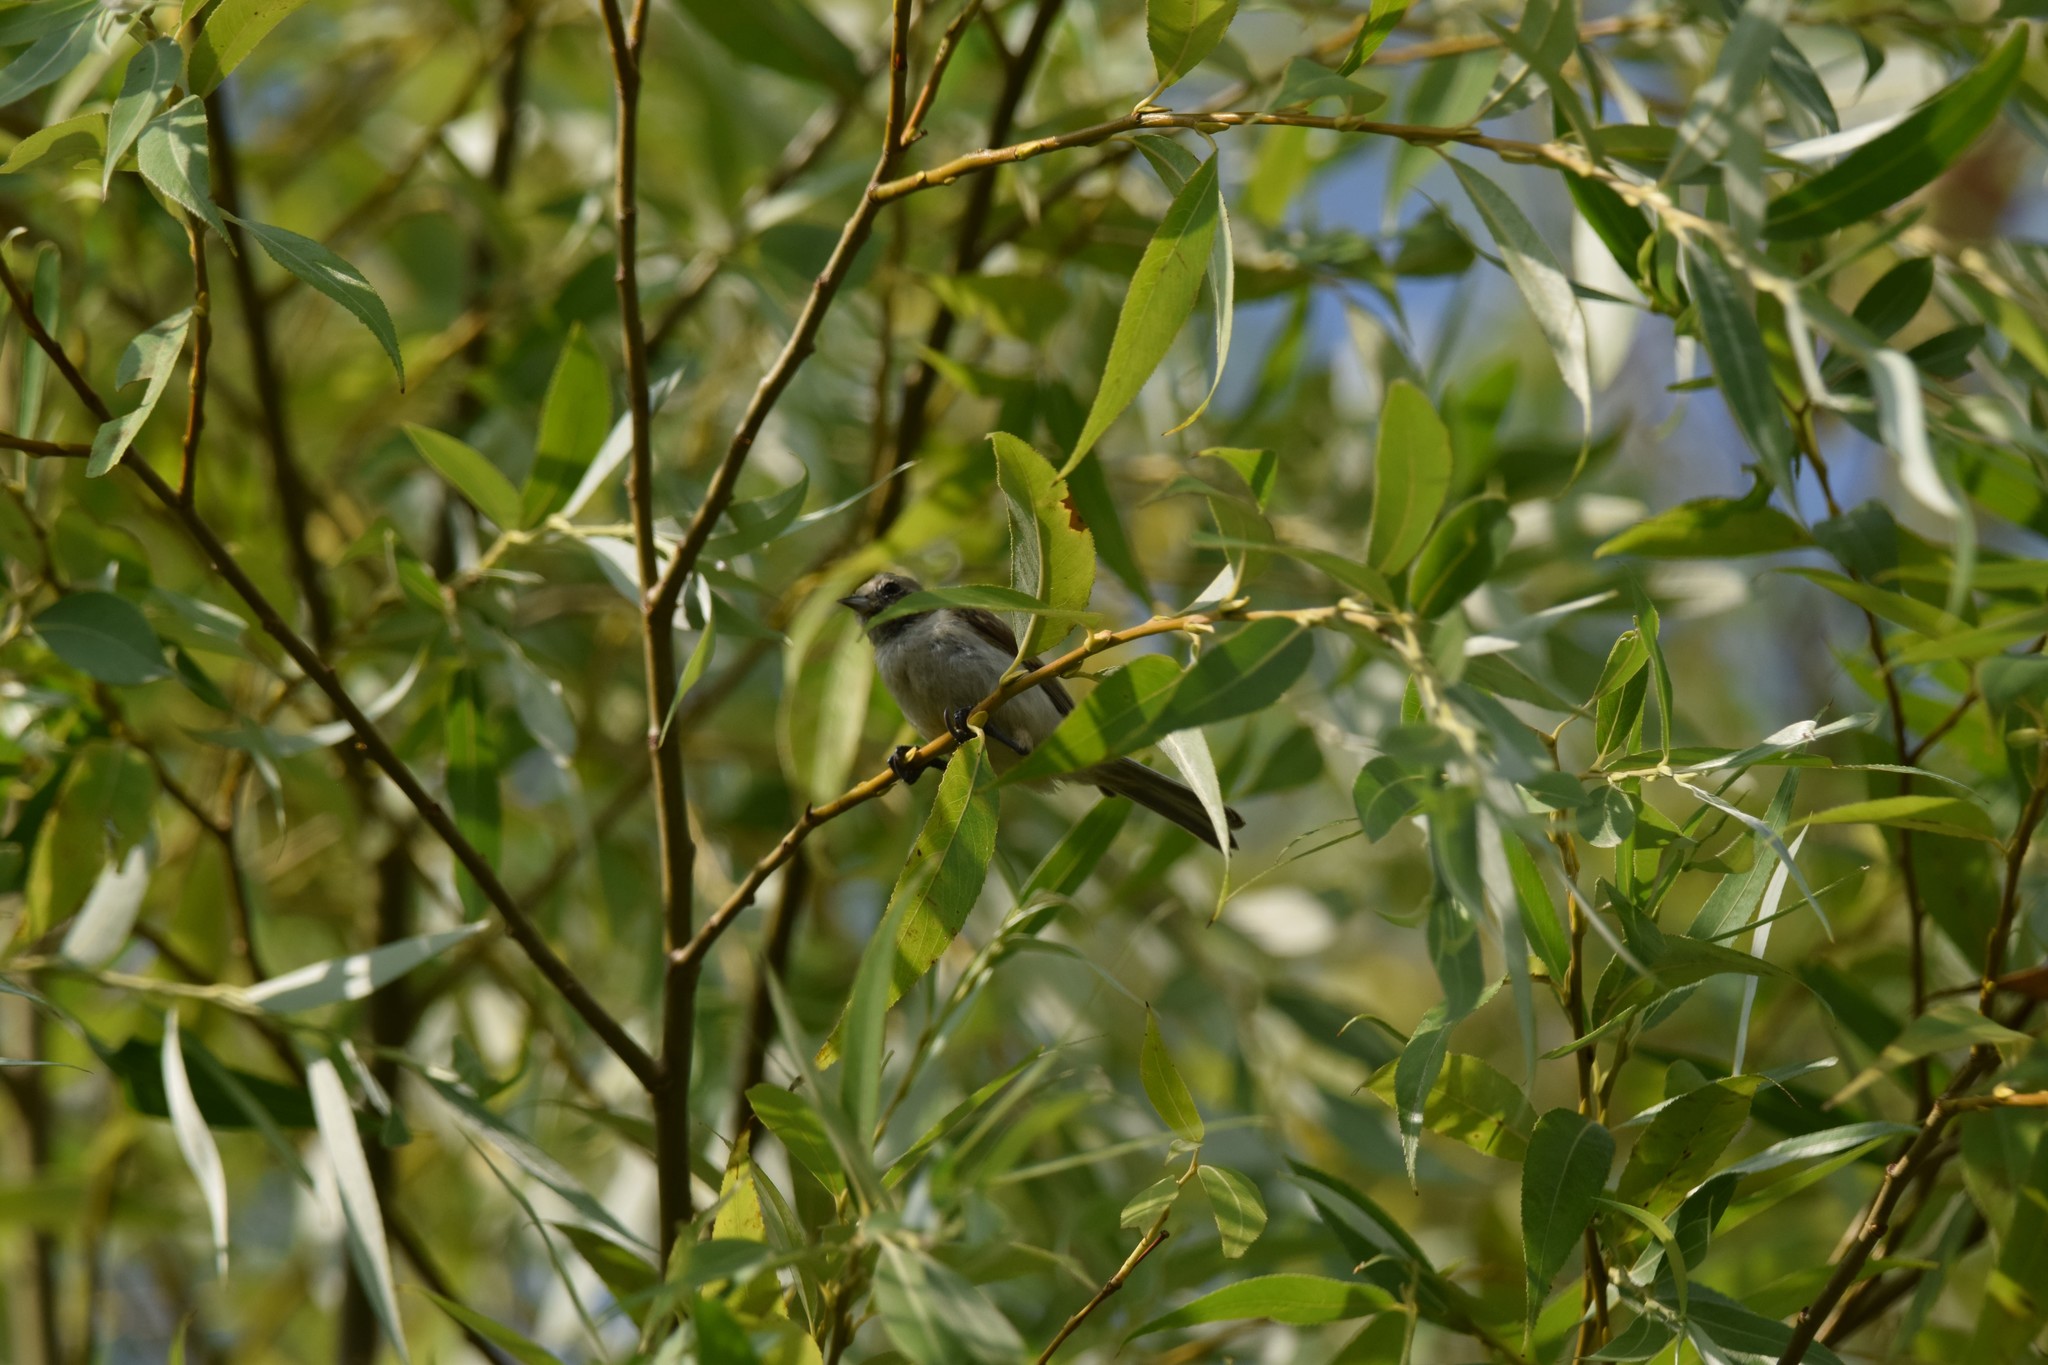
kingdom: Animalia
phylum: Chordata
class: Aves
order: Passeriformes
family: Remizidae
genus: Remiz
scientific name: Remiz pendulinus
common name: Eurasian penduline tit
